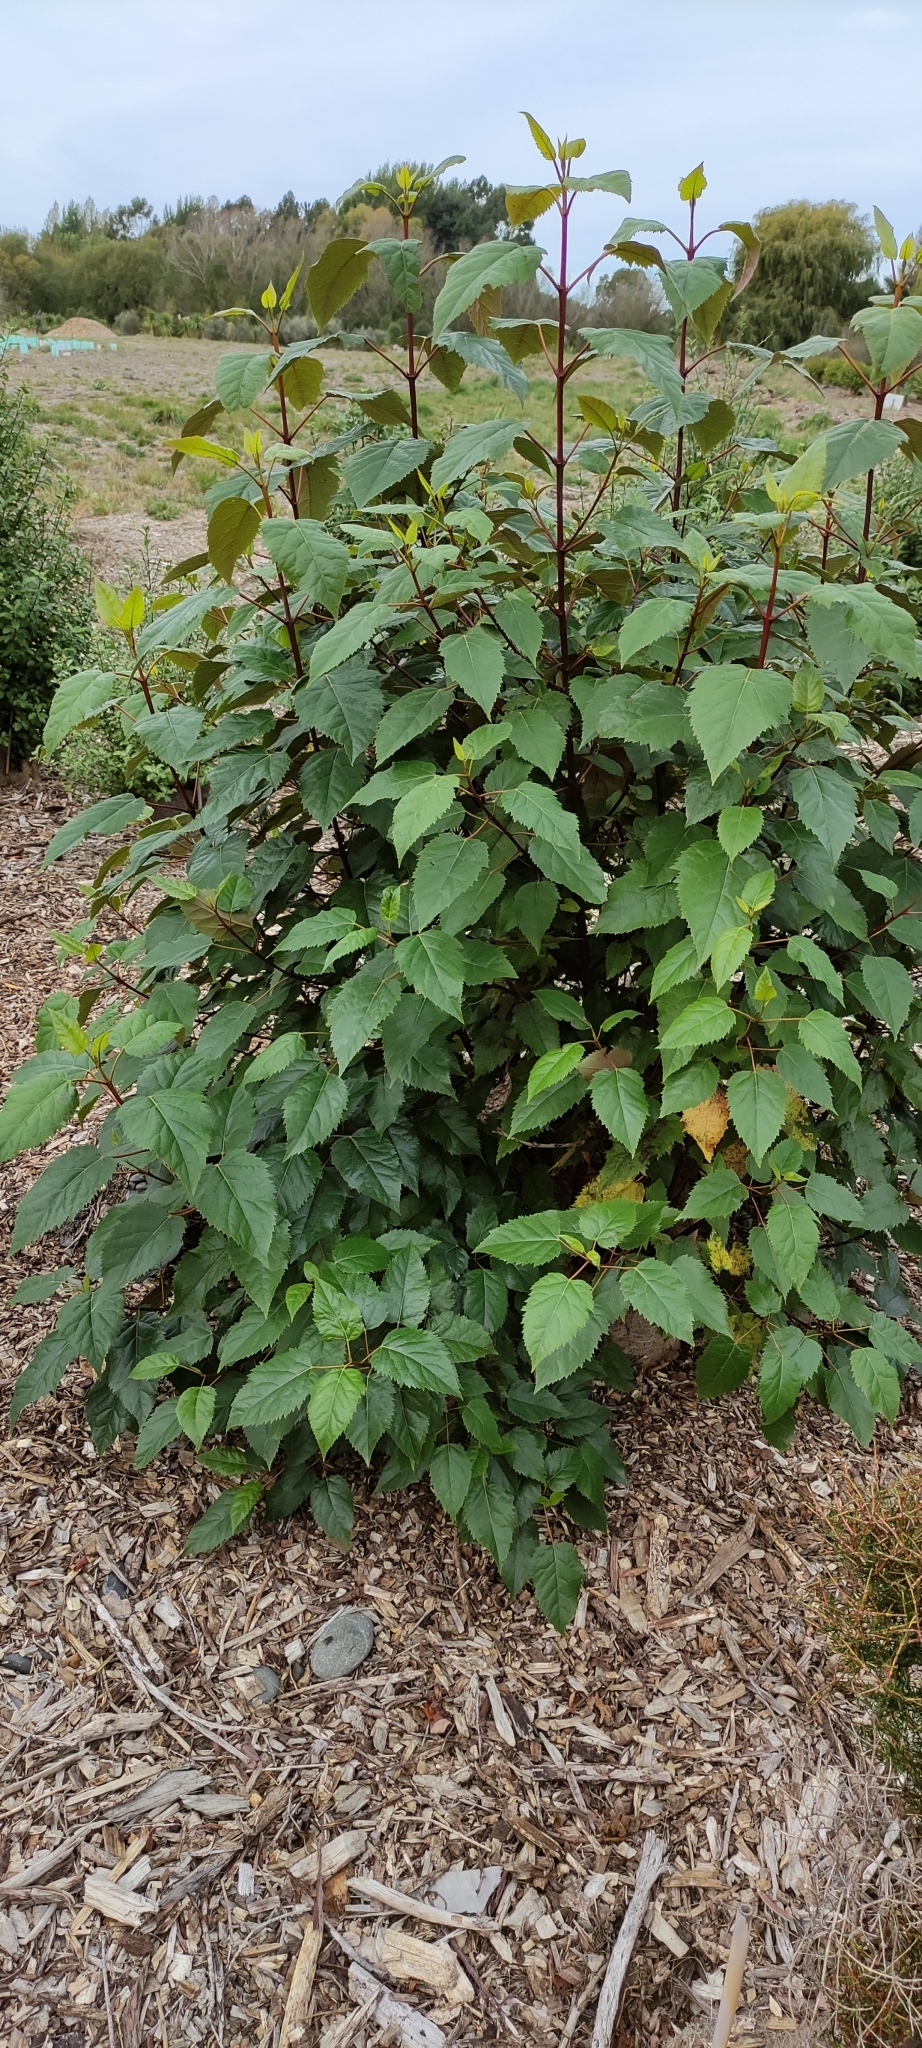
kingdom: Plantae
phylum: Tracheophyta
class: Magnoliopsida
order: Oxalidales
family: Elaeocarpaceae
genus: Aristotelia
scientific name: Aristotelia serrata
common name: New zealand wineberry
